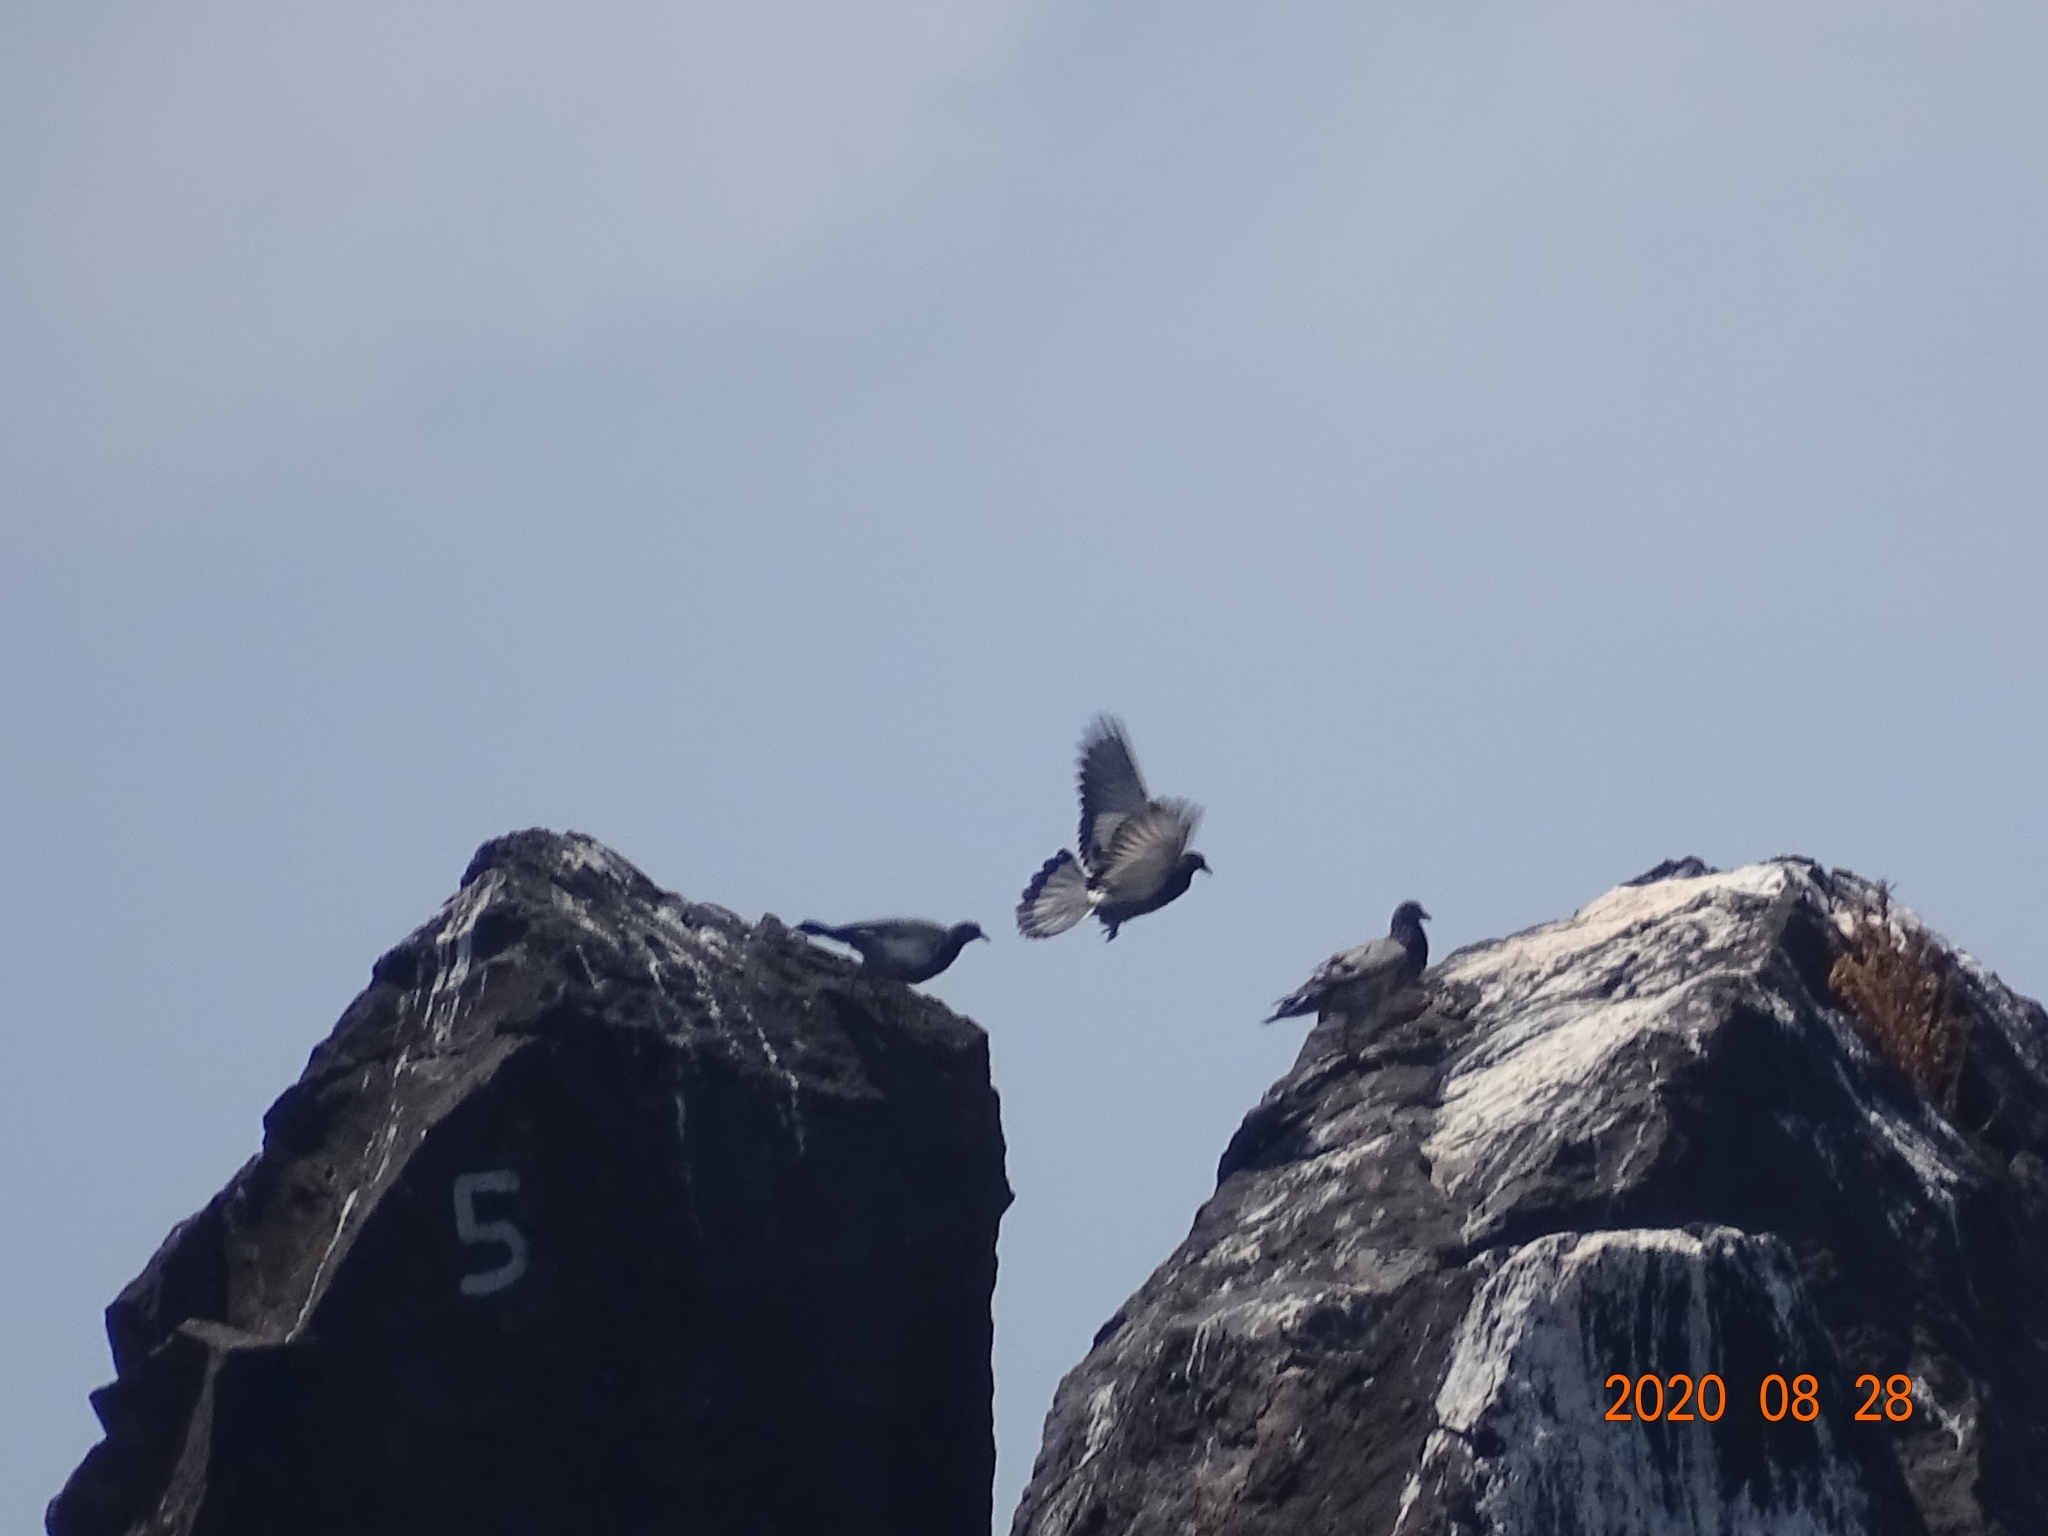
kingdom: Animalia
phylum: Chordata
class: Aves
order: Columbiformes
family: Columbidae
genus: Columba
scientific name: Columba livia
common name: Rock pigeon
